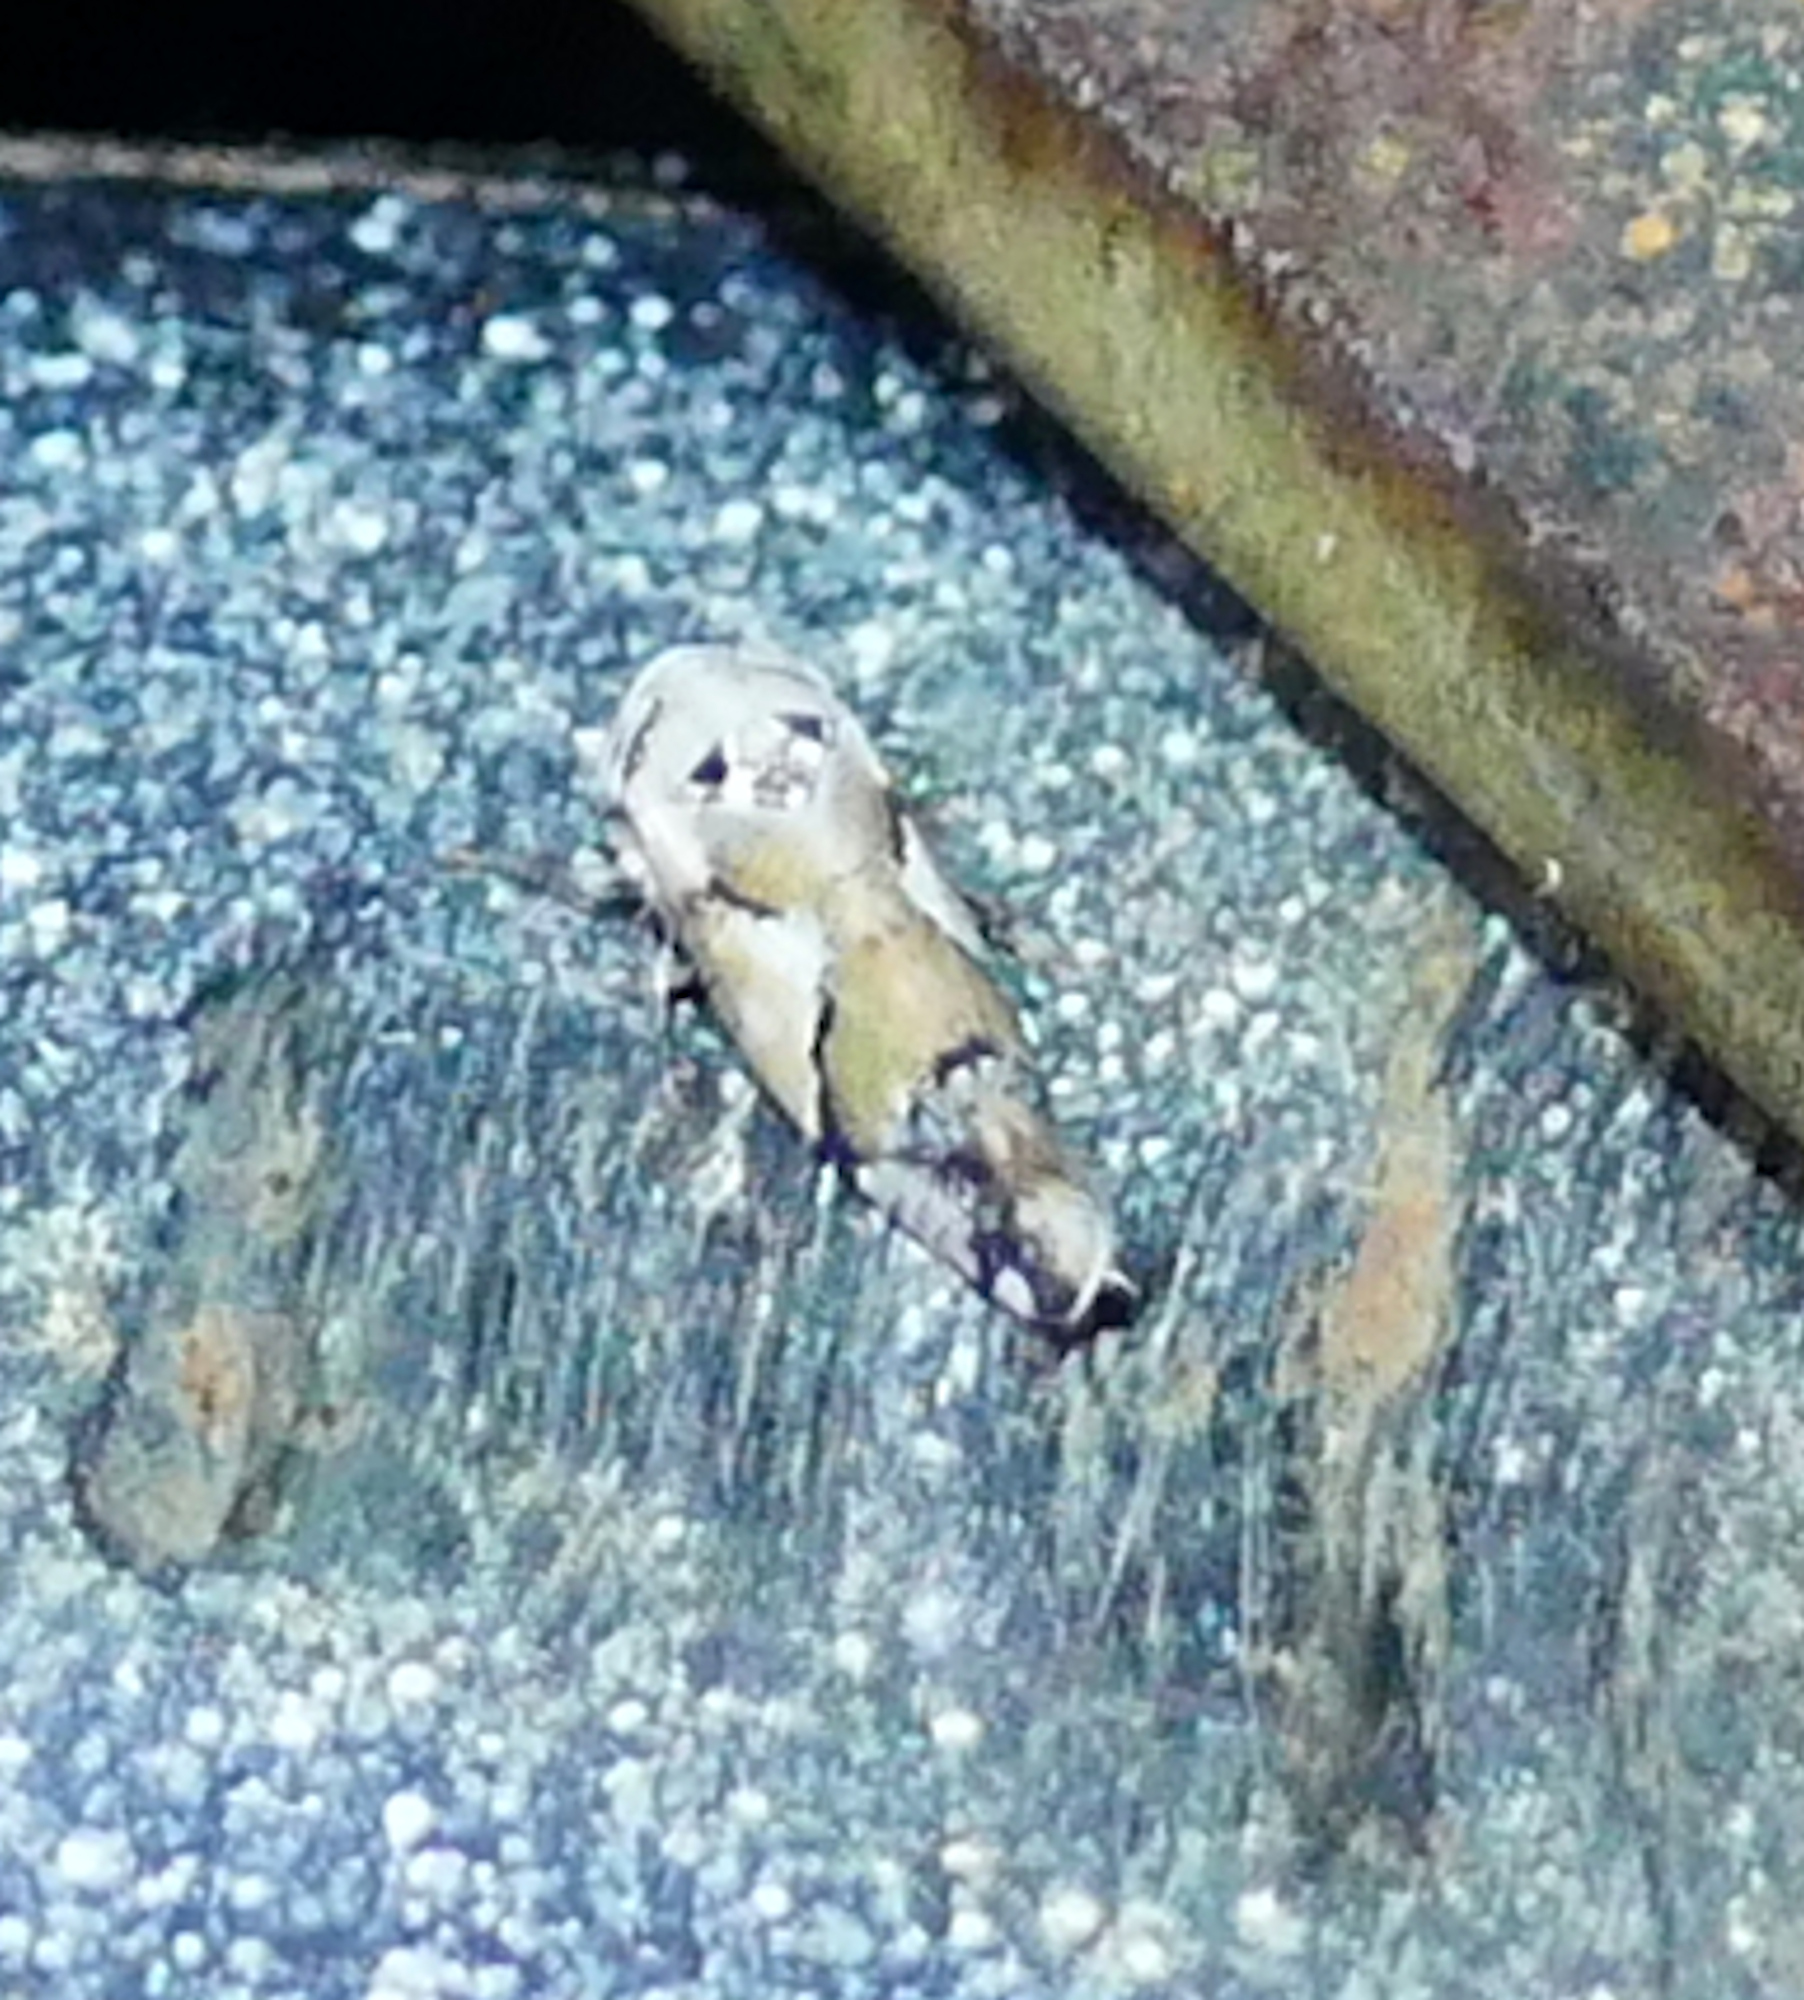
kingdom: Animalia
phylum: Arthropoda
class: Insecta
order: Hemiptera
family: Cicadellidae
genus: Norvellina
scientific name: Norvellina perelegantis
